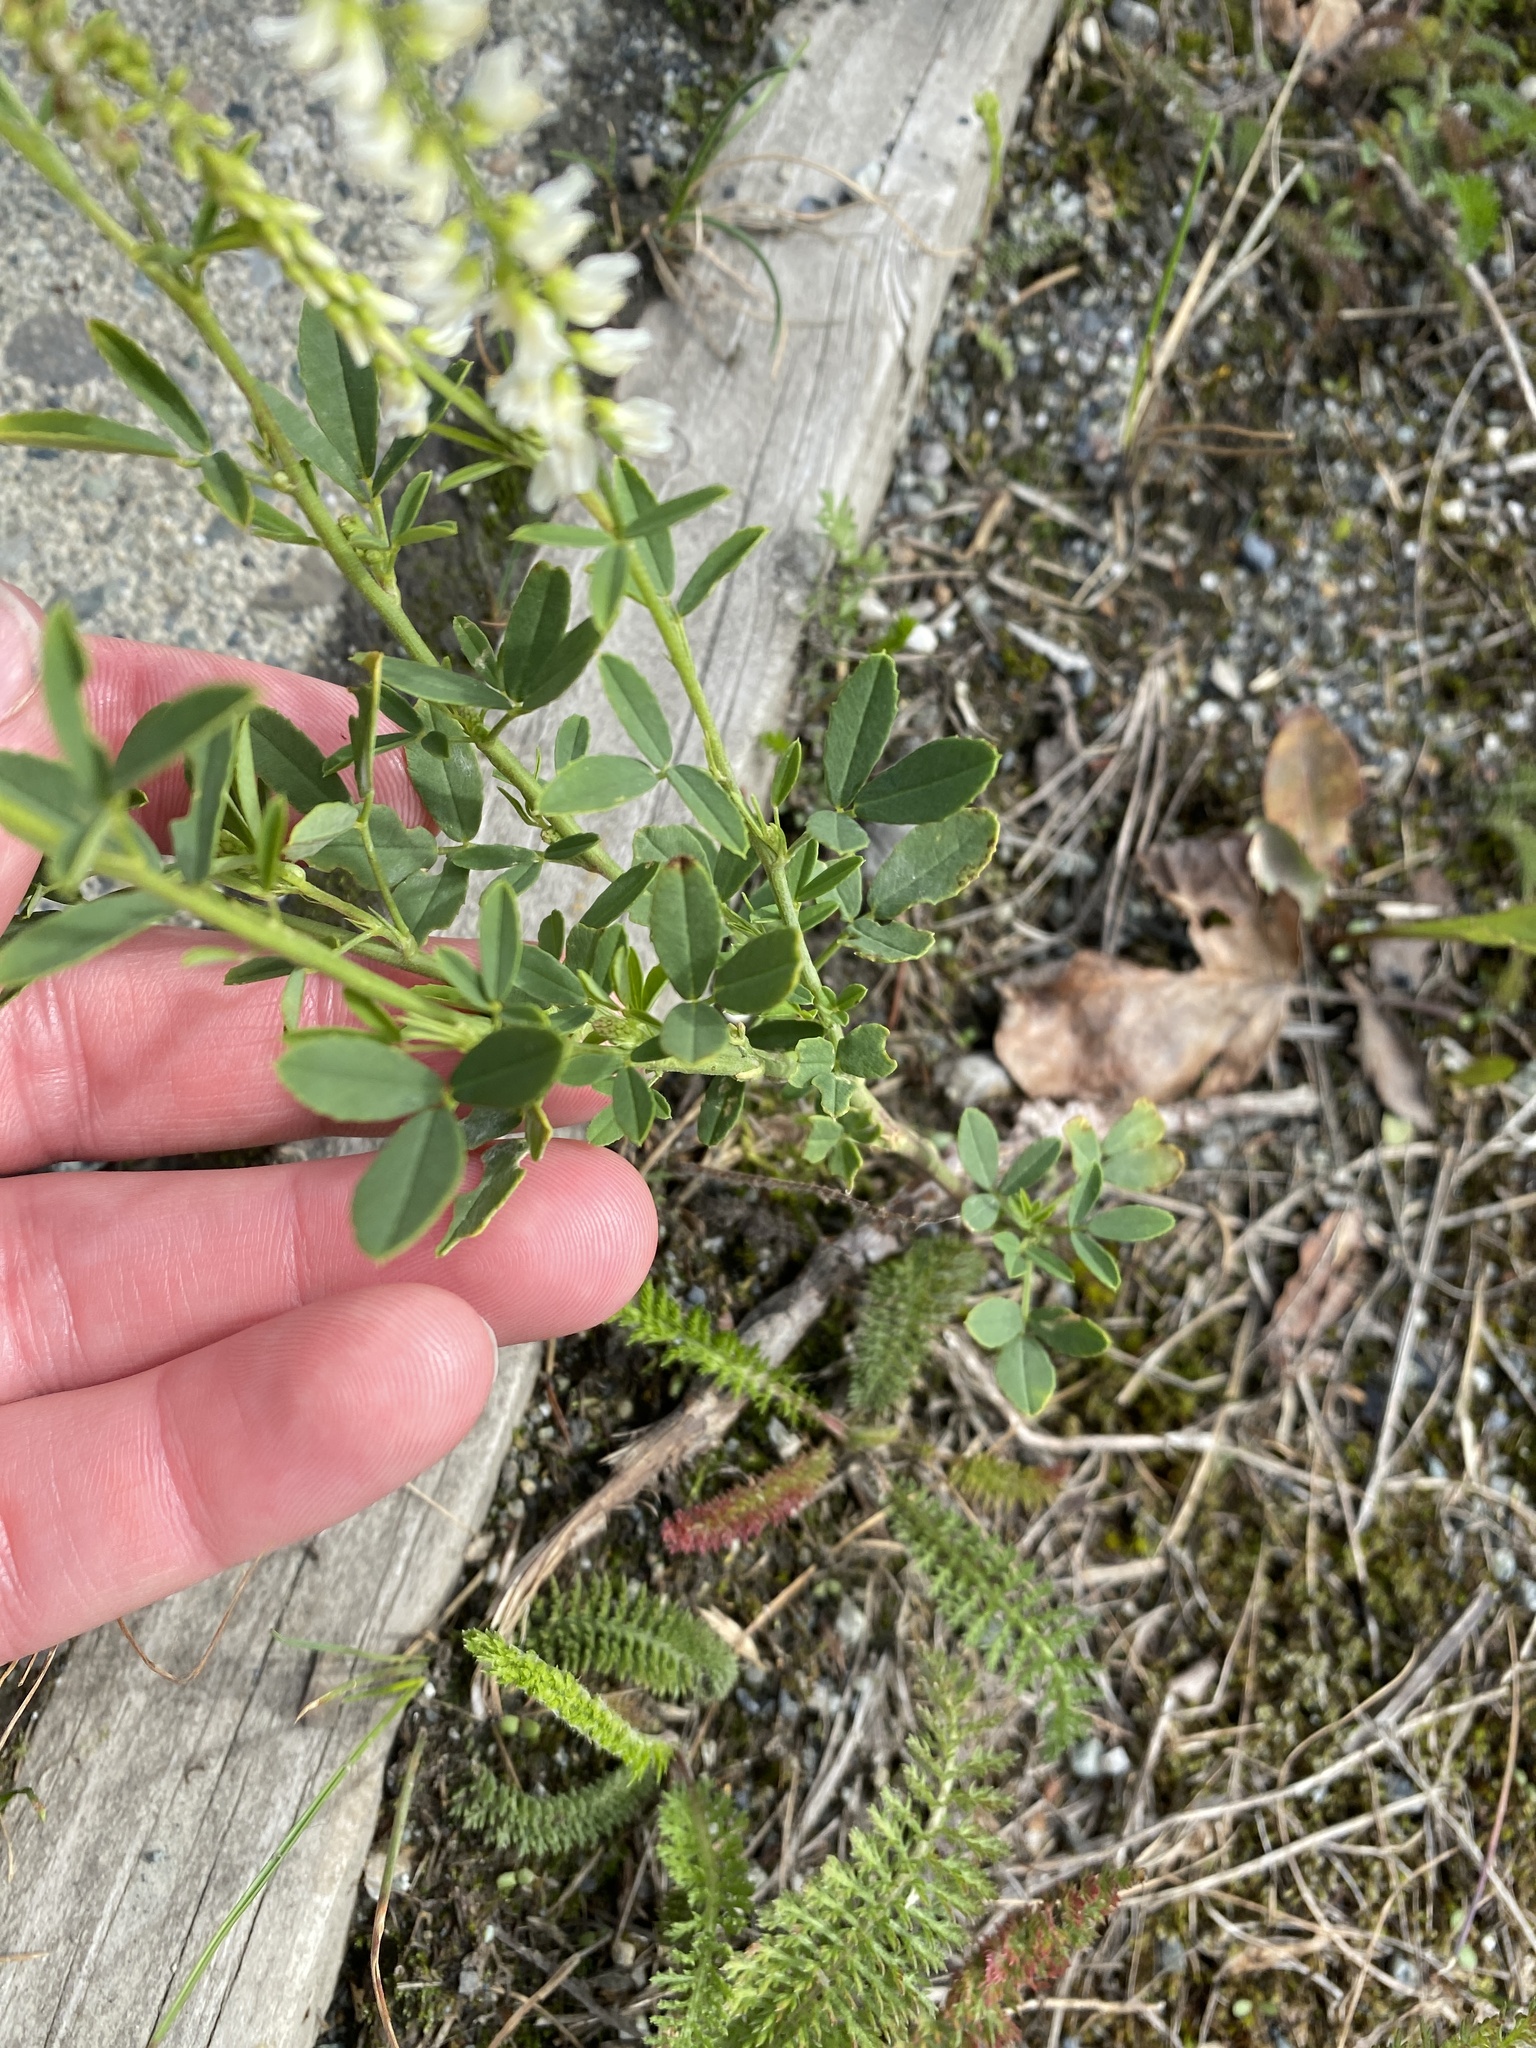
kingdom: Plantae
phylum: Tracheophyta
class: Magnoliopsida
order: Fabales
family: Fabaceae
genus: Melilotus
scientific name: Melilotus albus
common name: White melilot
